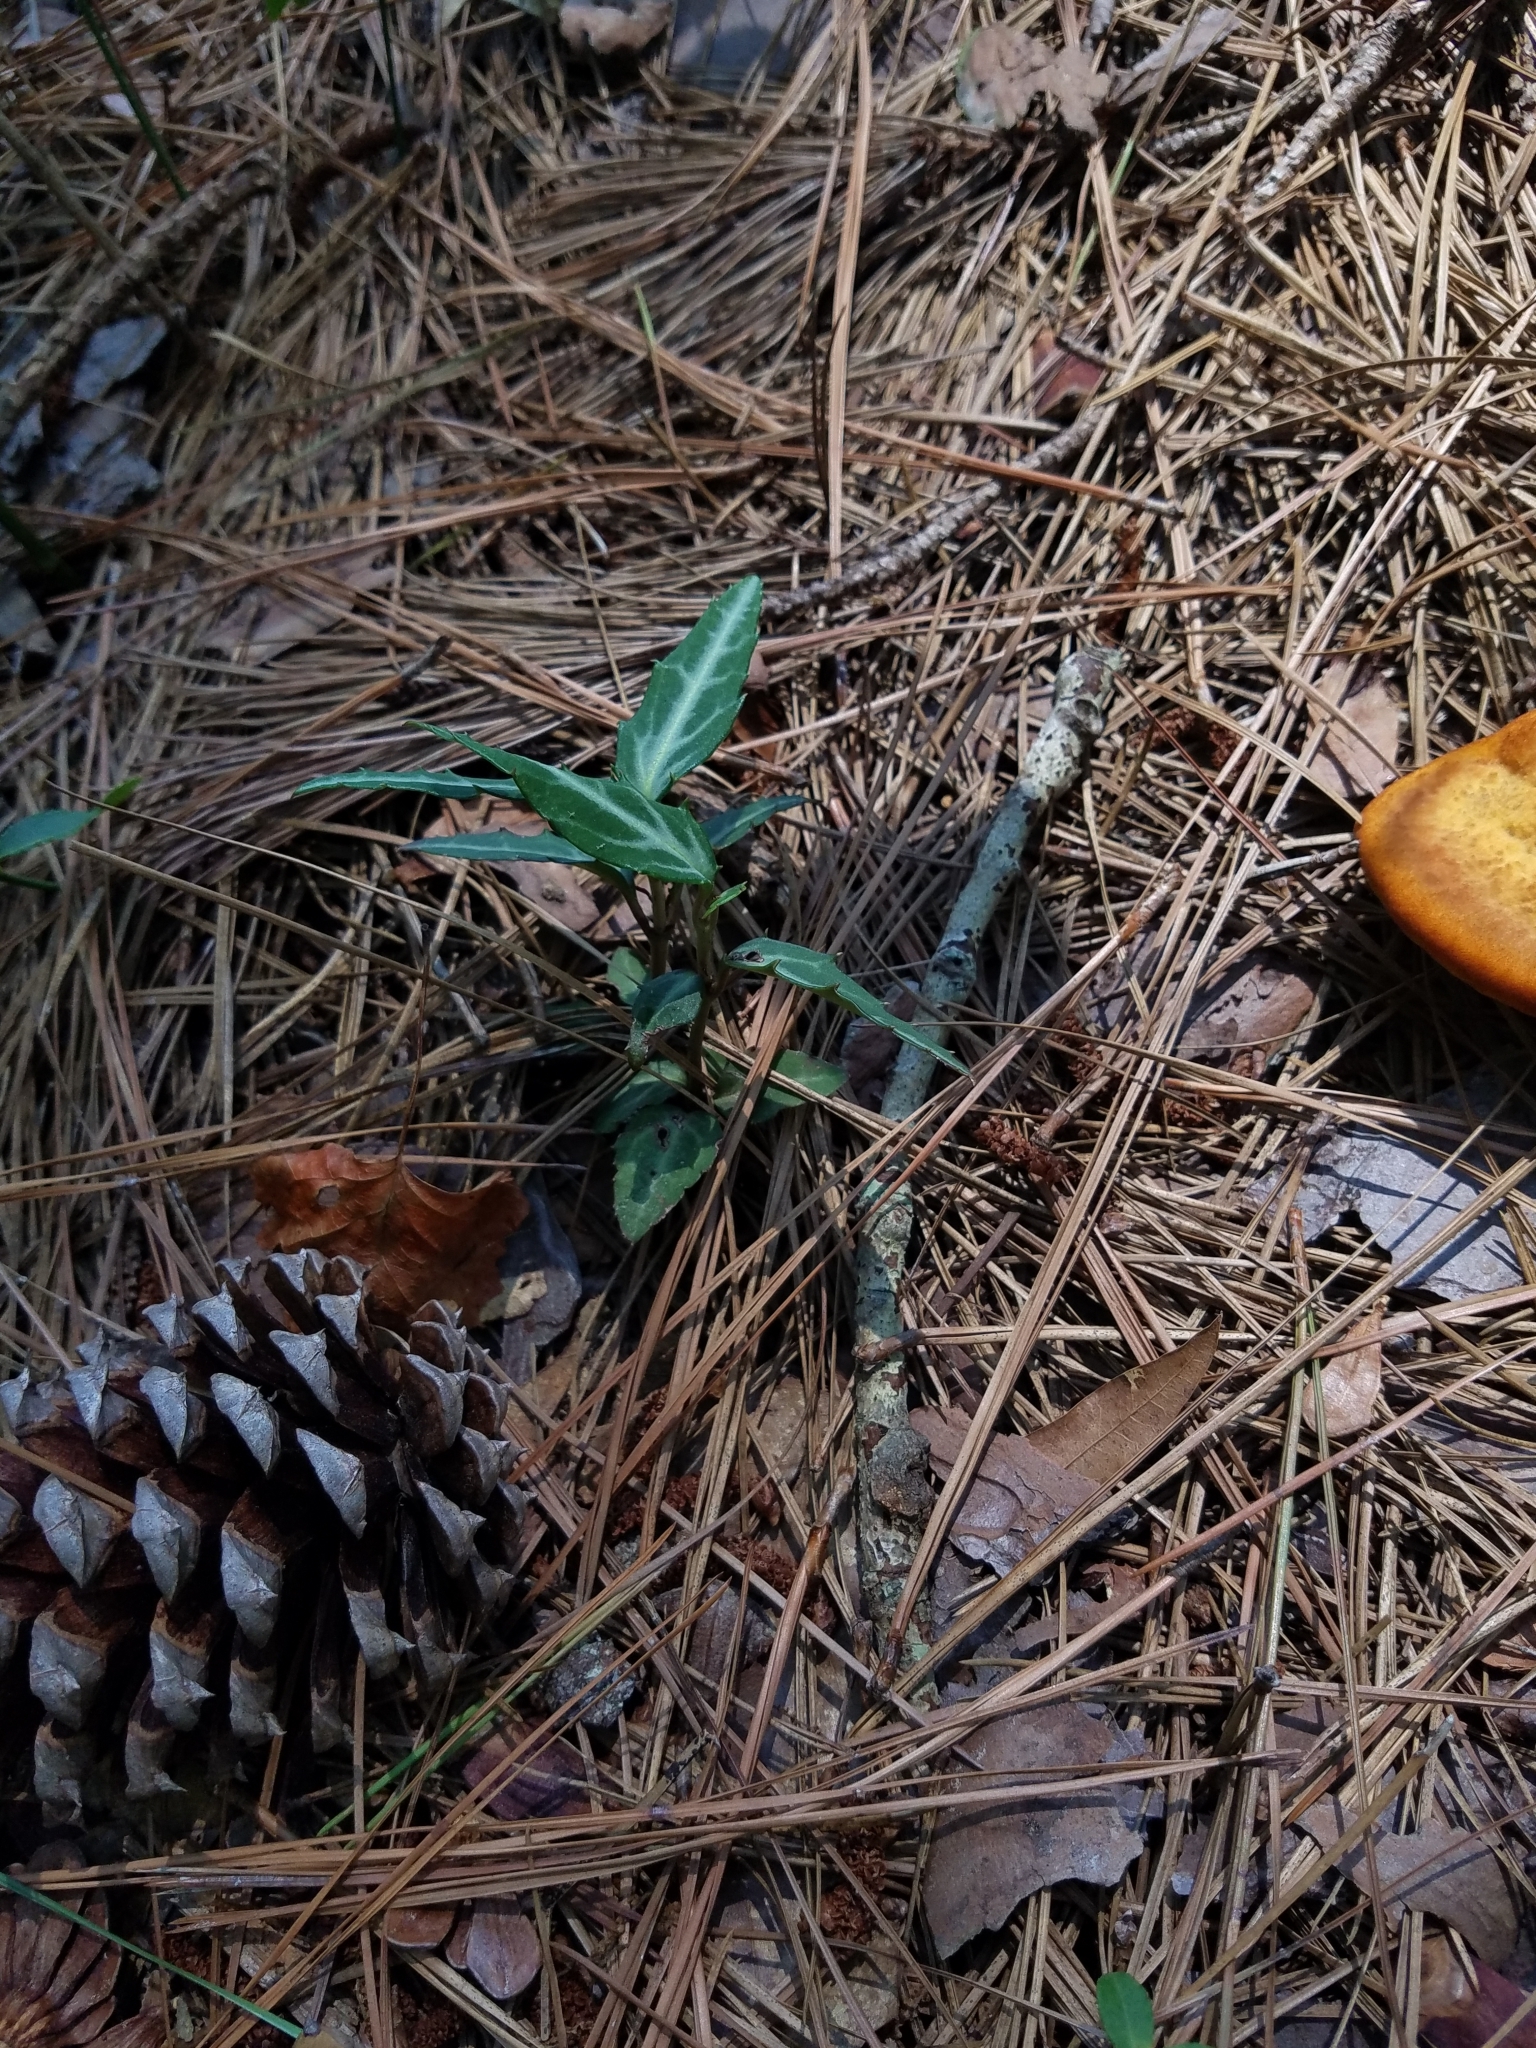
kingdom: Plantae
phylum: Tracheophyta
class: Magnoliopsida
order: Ericales
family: Ericaceae
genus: Chimaphila
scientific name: Chimaphila maculata
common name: Spotted pipsissewa
